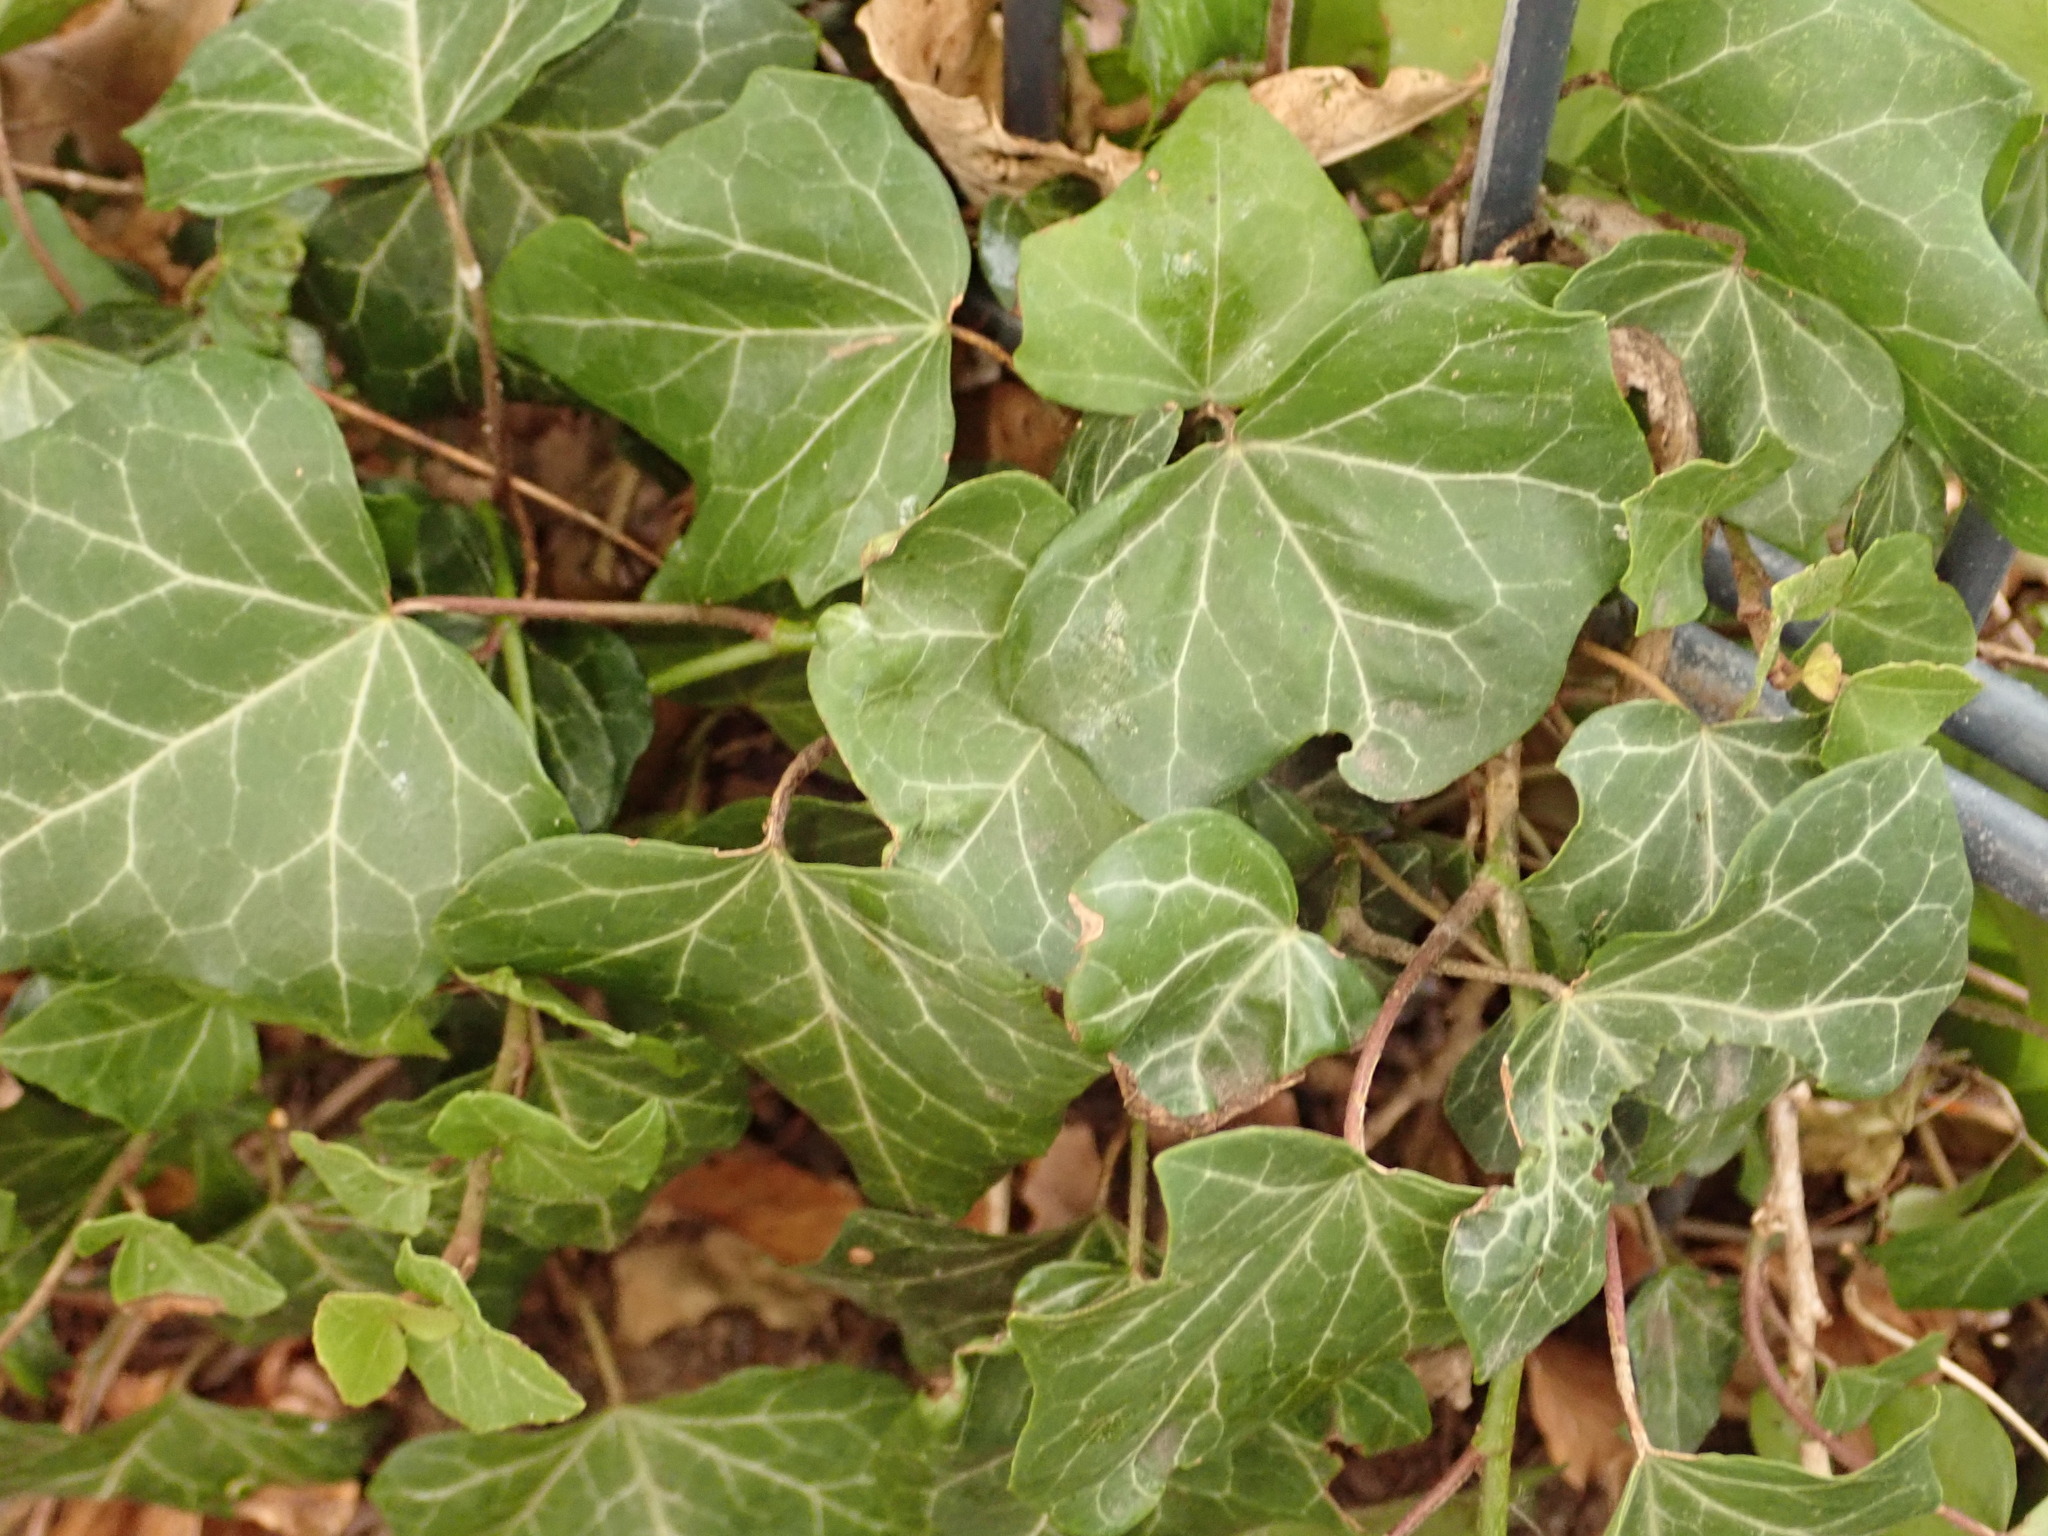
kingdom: Plantae
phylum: Tracheophyta
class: Magnoliopsida
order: Apiales
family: Araliaceae
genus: Hedera
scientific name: Hedera helix
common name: Ivy
